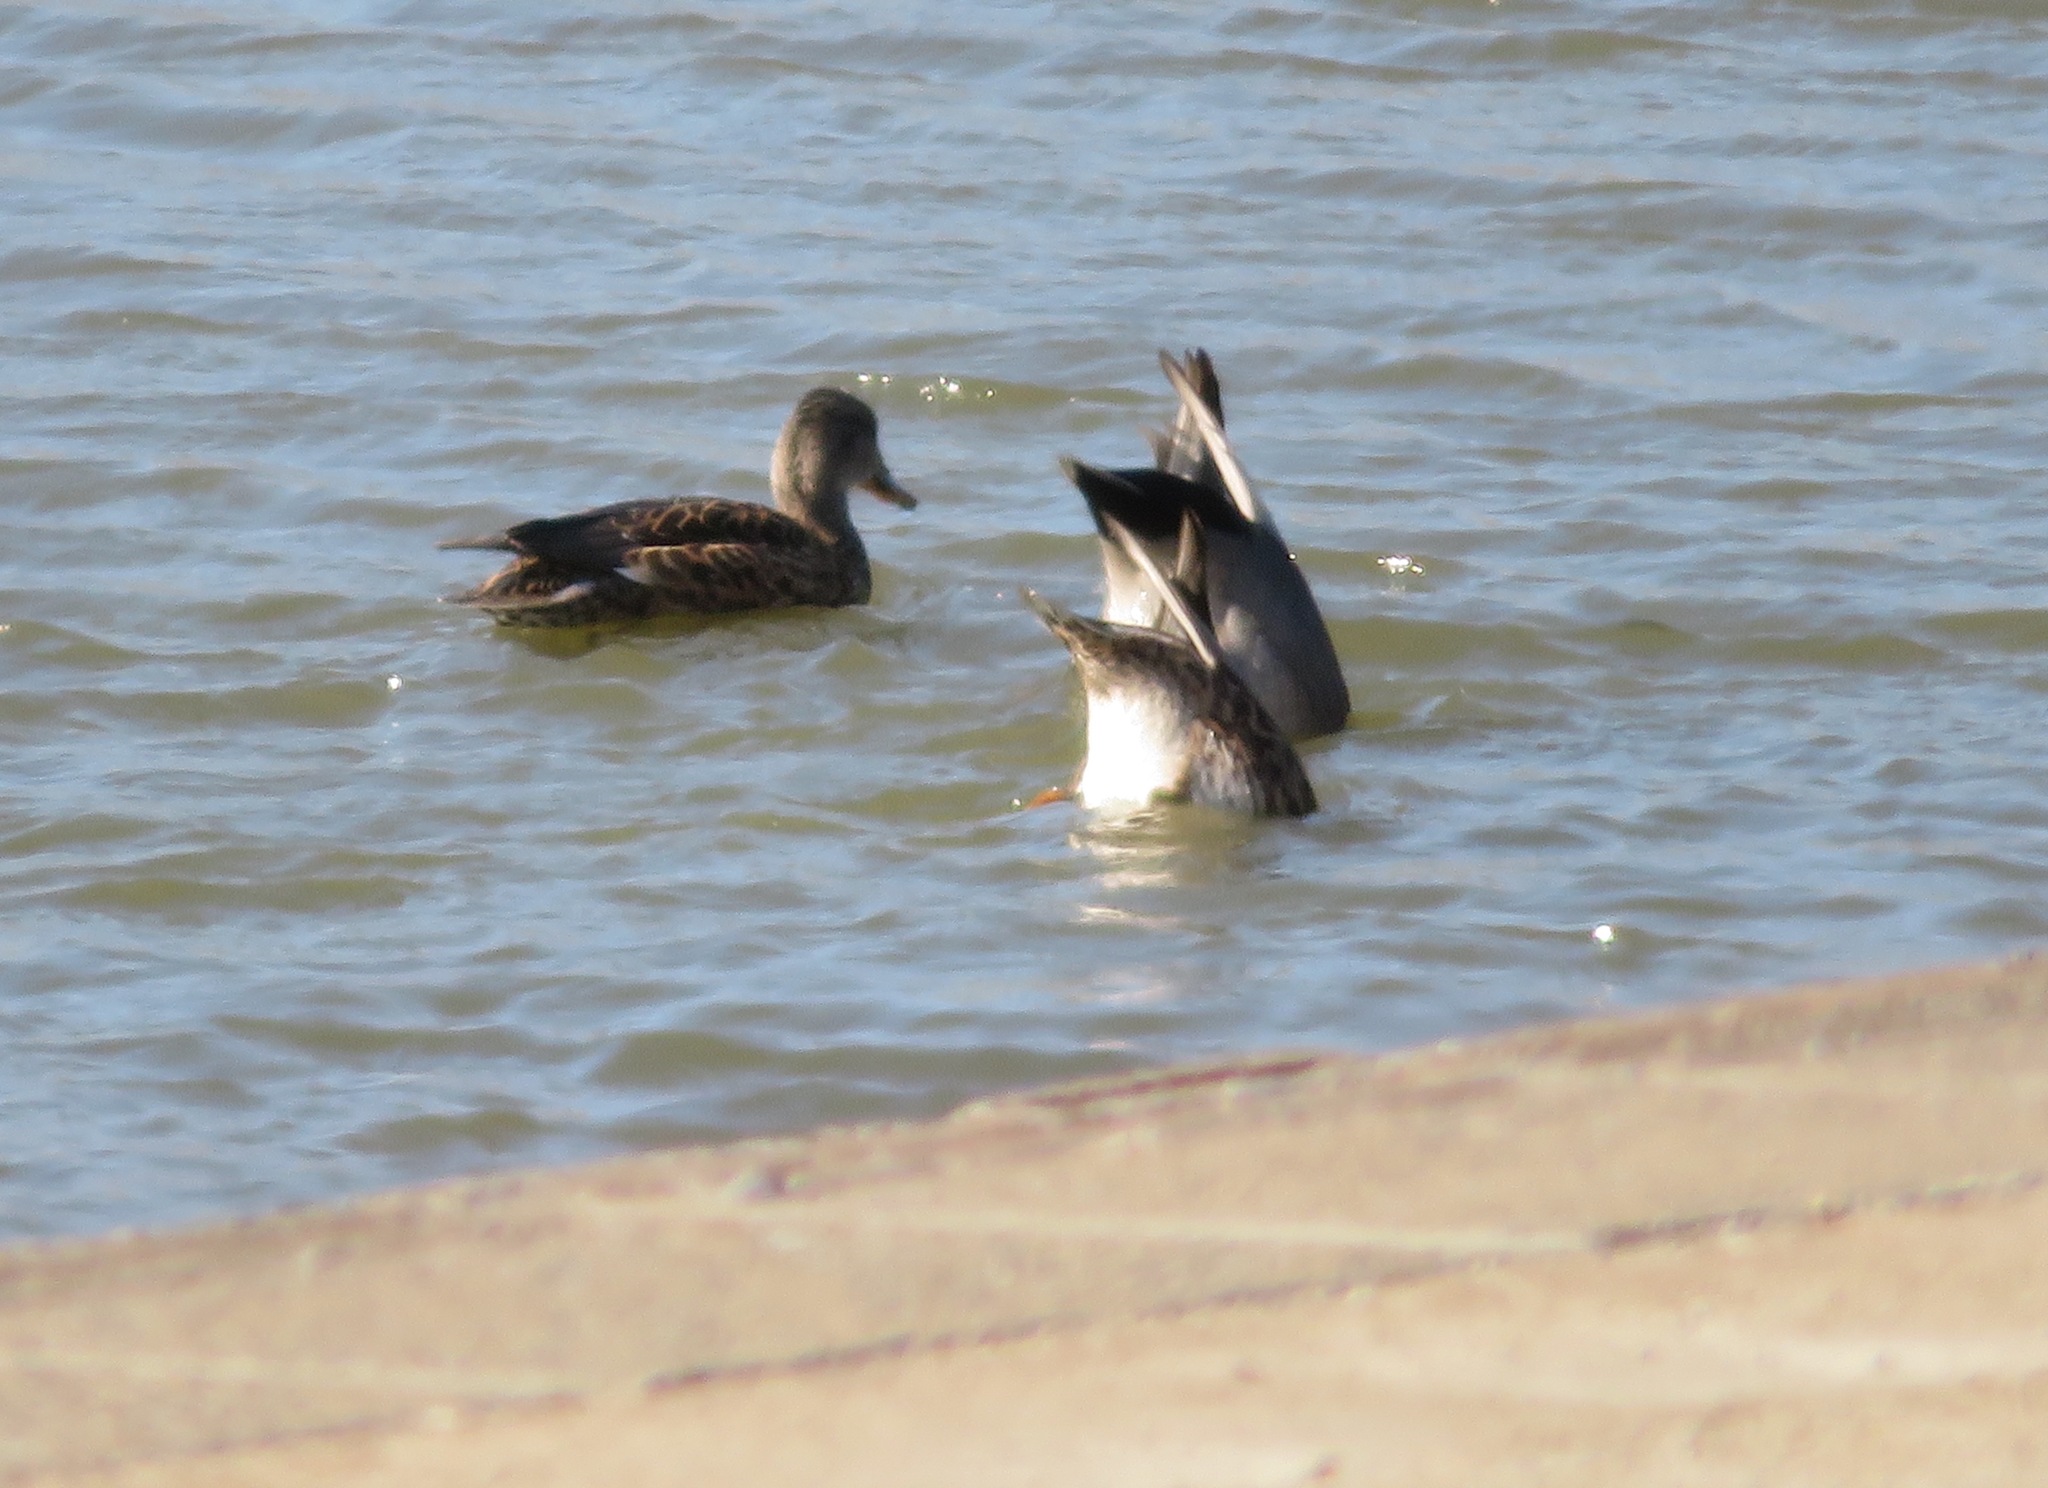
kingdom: Animalia
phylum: Chordata
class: Aves
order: Anseriformes
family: Anatidae
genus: Mareca
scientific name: Mareca strepera
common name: Gadwall
